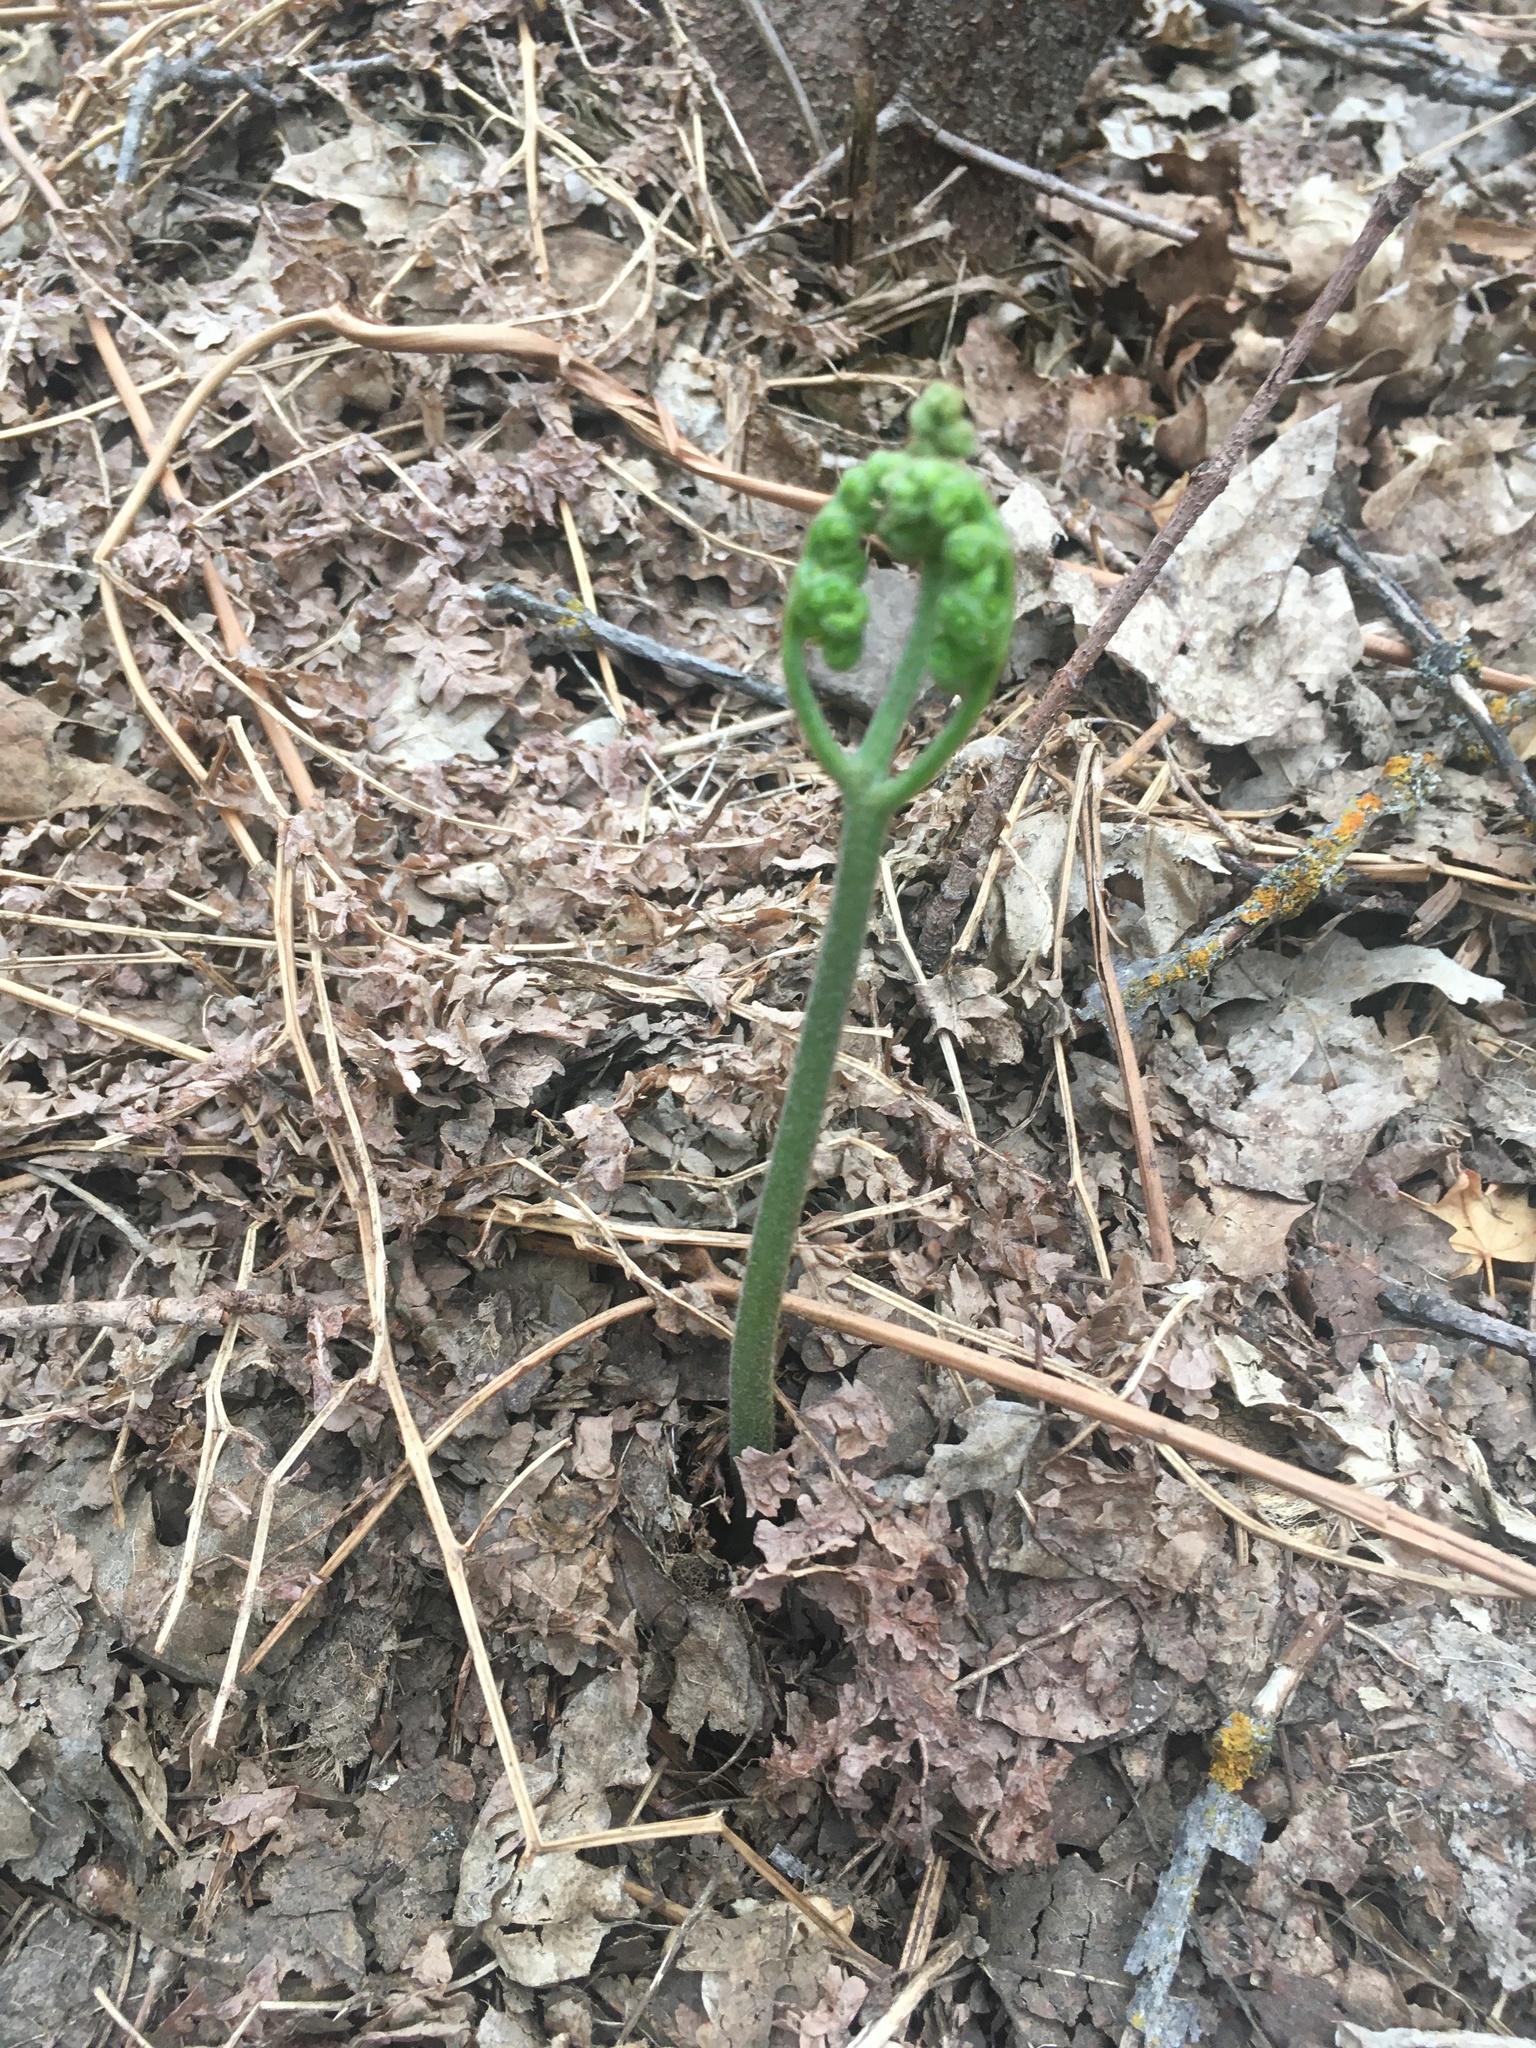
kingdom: Plantae
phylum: Tracheophyta
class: Polypodiopsida
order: Polypodiales
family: Dennstaedtiaceae
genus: Pteridium
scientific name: Pteridium aquilinum
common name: Bracken
